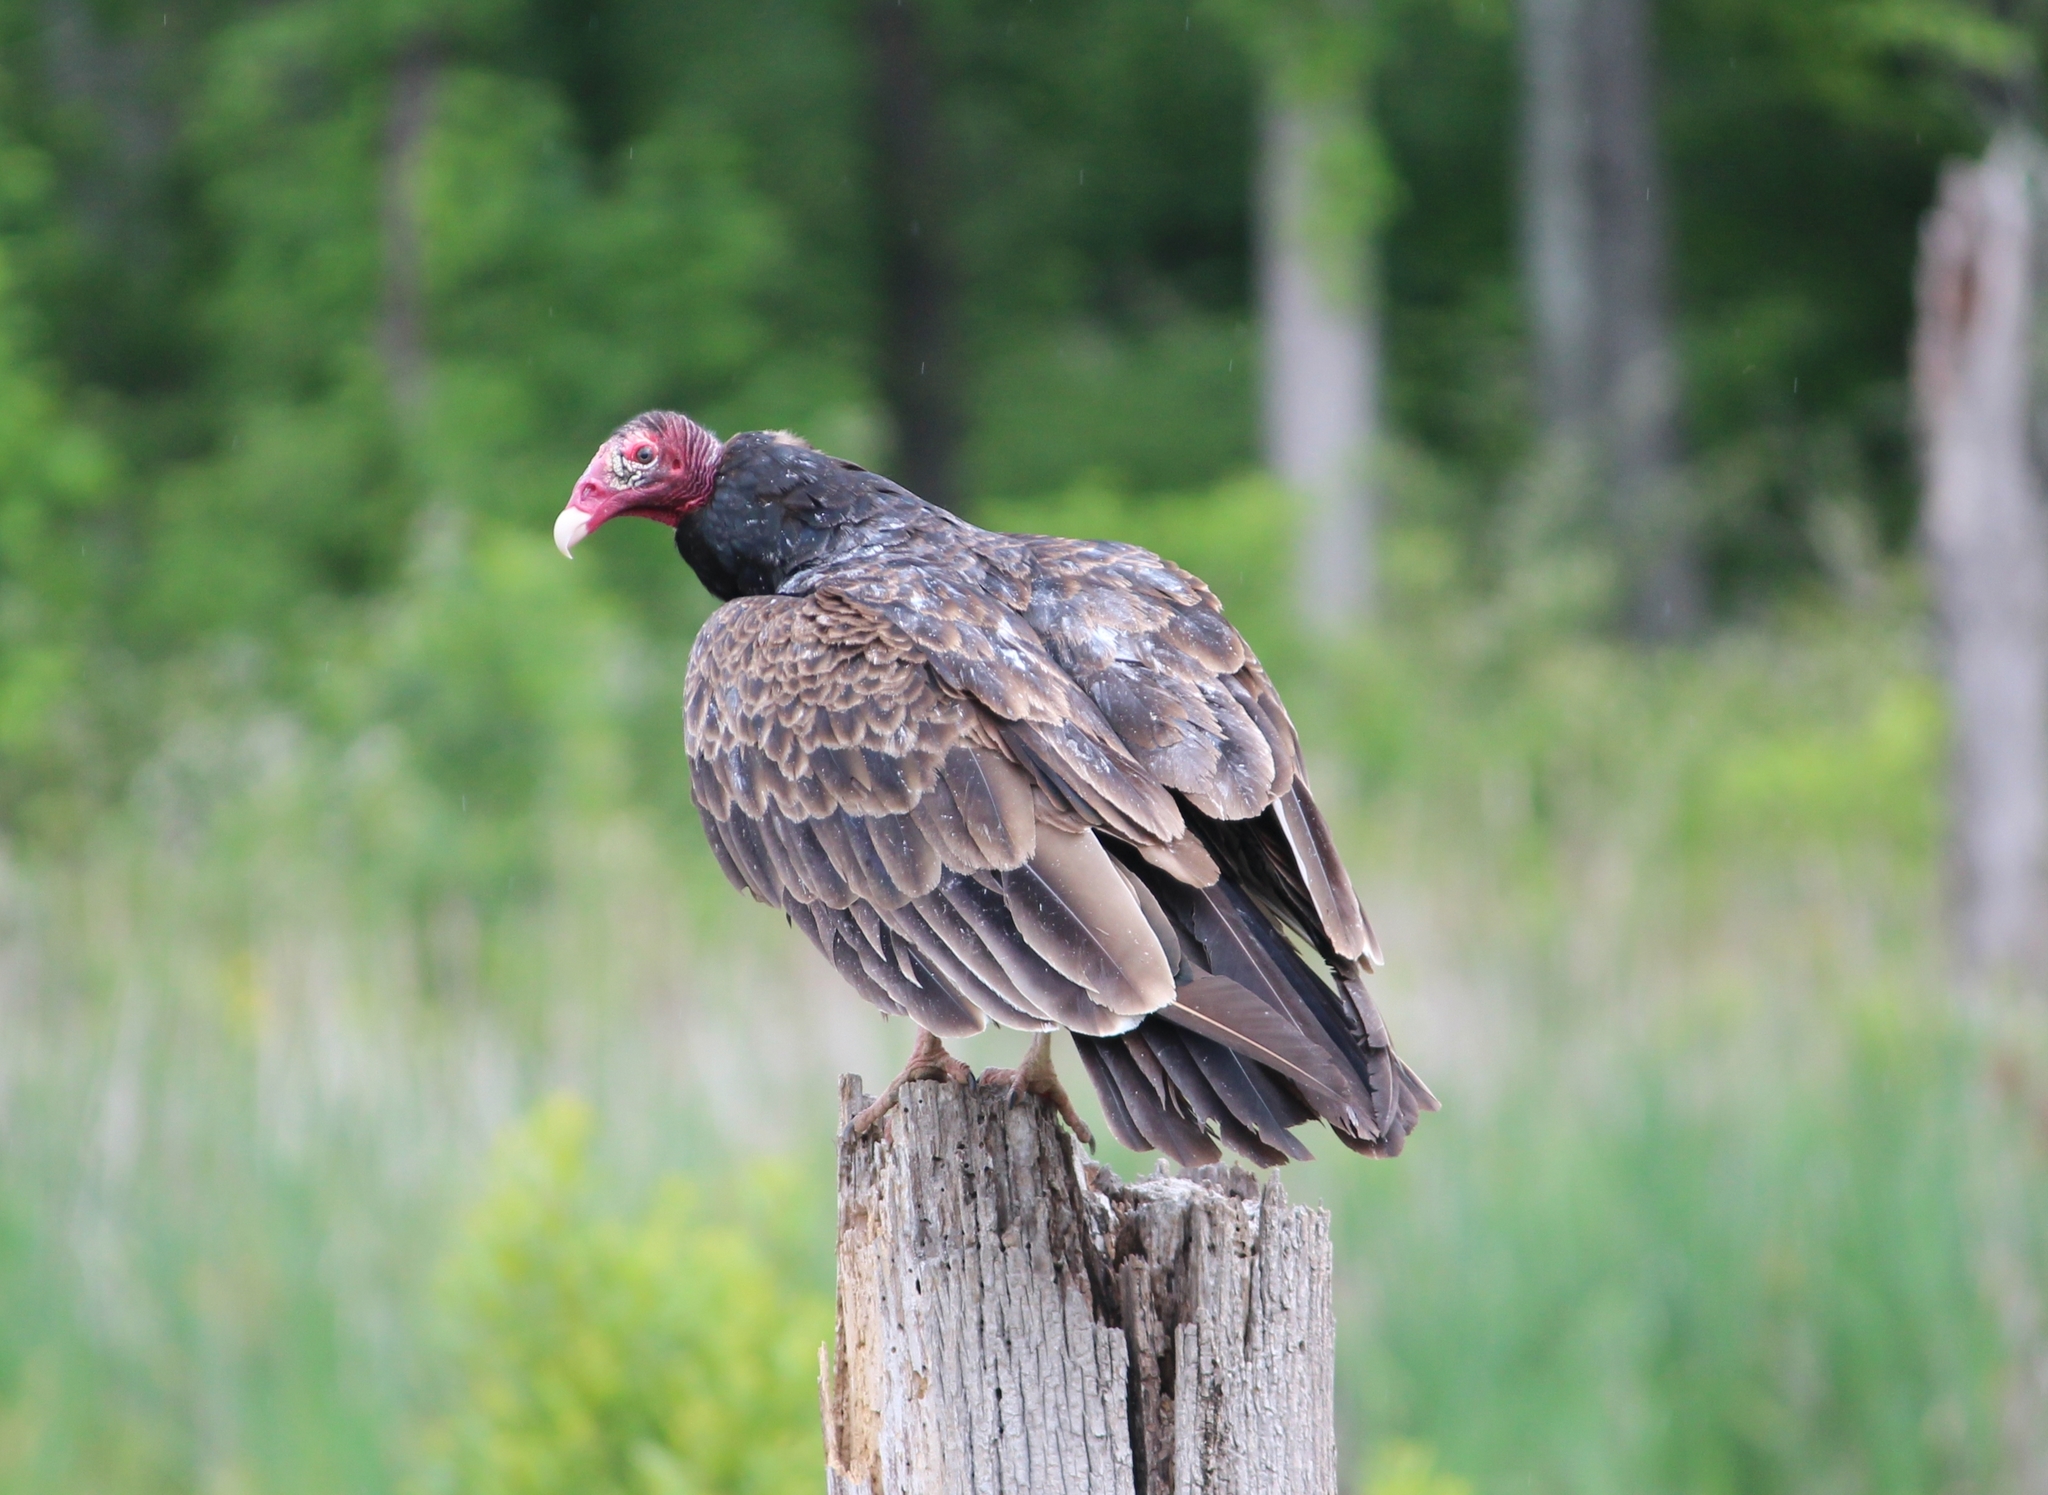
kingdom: Animalia
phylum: Chordata
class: Aves
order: Accipitriformes
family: Cathartidae
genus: Cathartes
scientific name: Cathartes aura
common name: Turkey vulture
